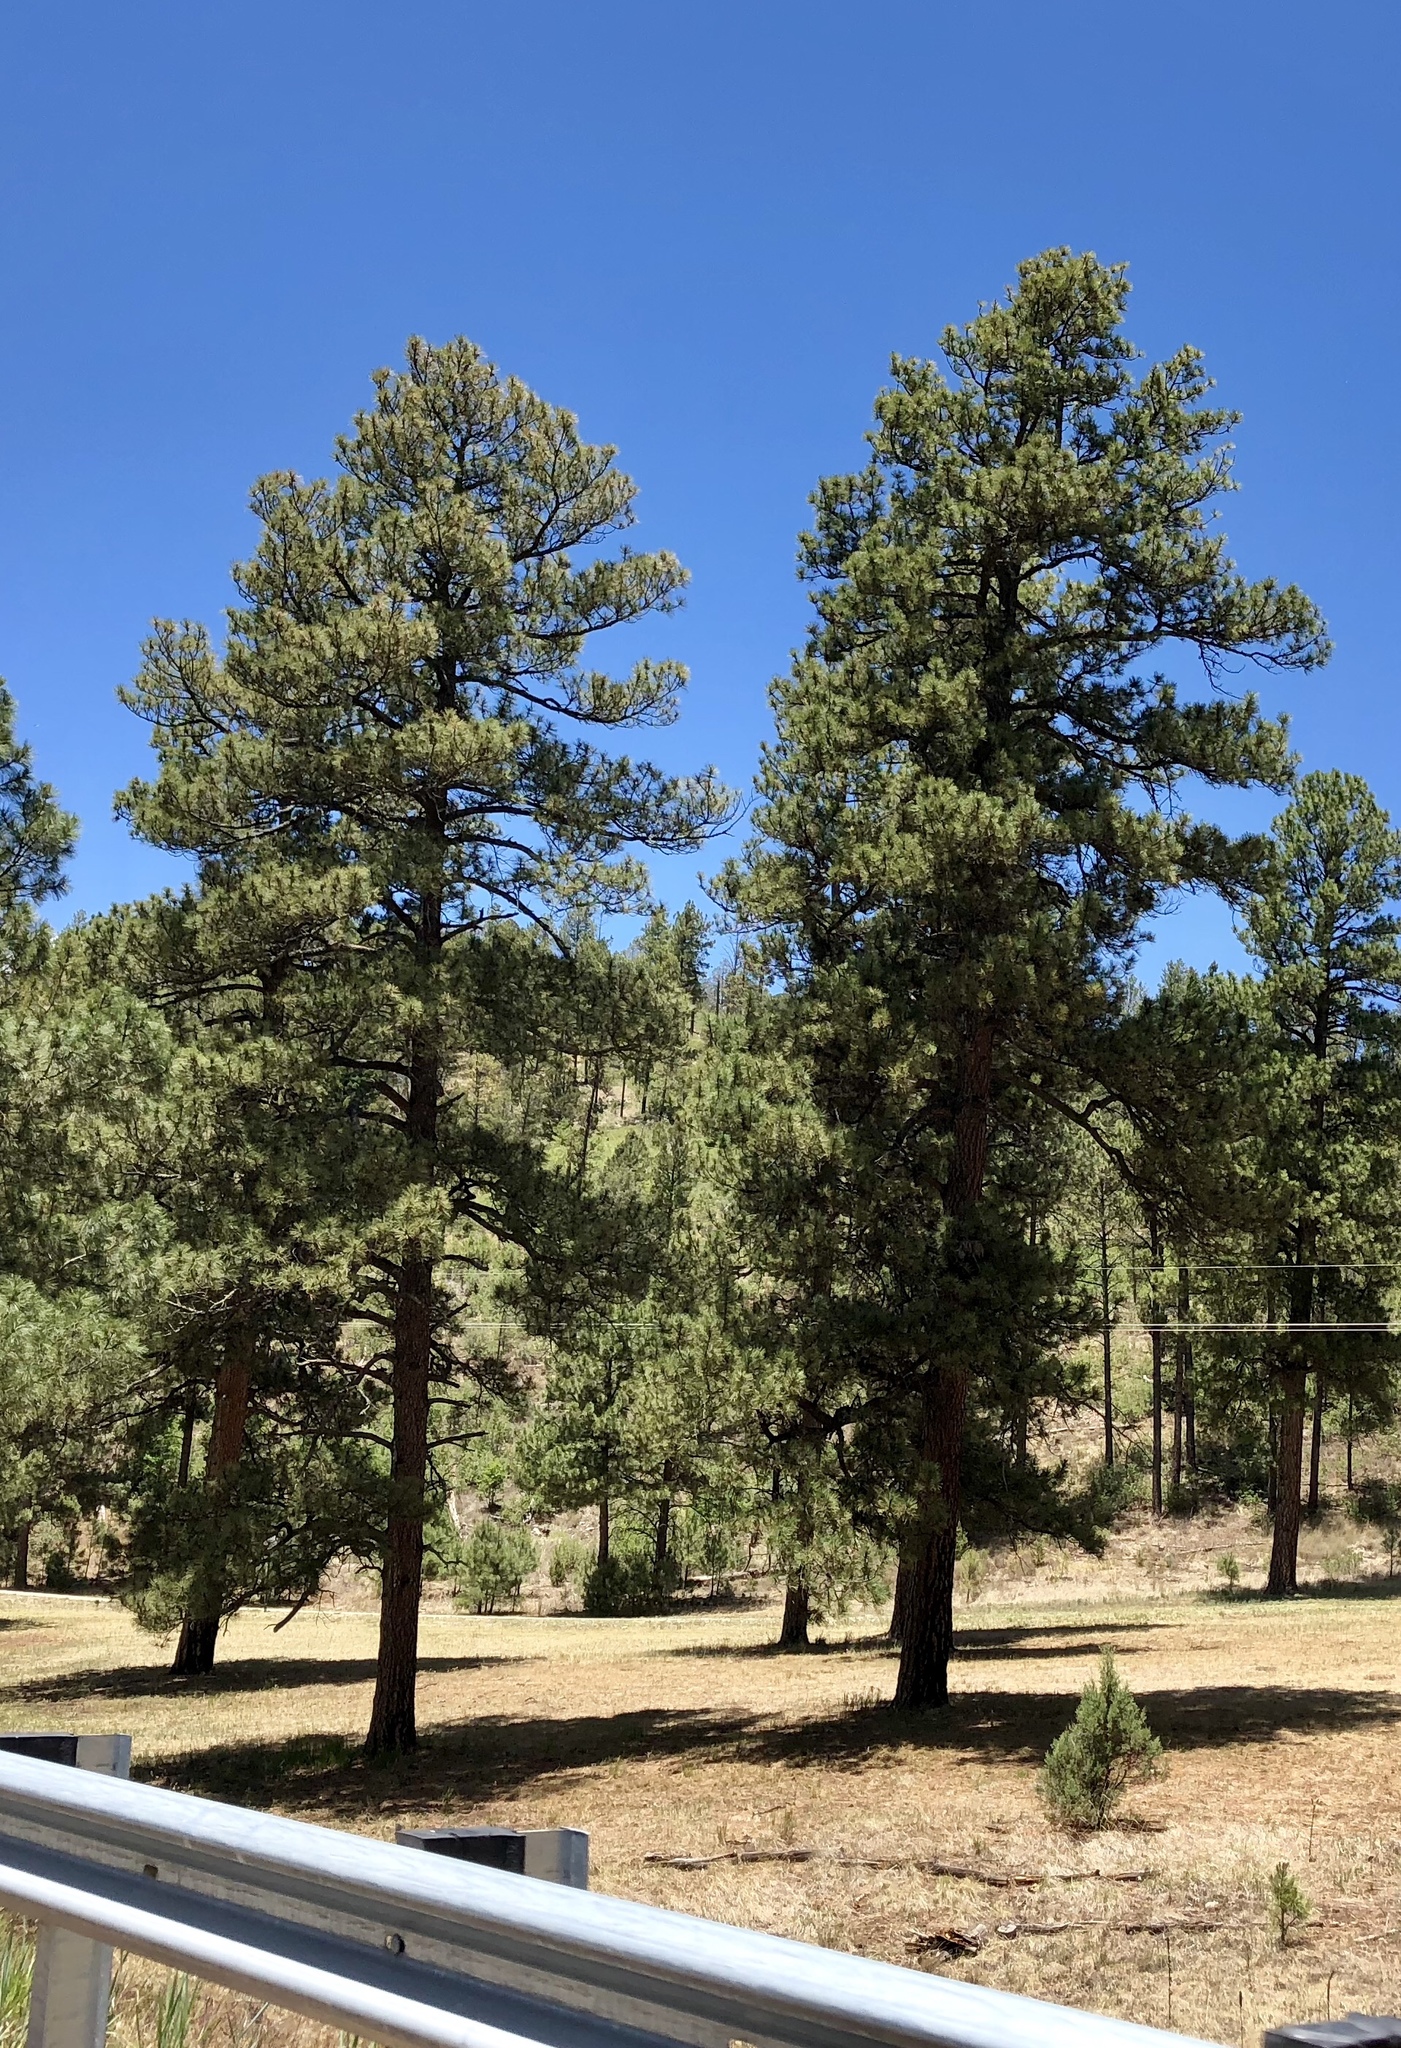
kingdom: Plantae
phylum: Tracheophyta
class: Pinopsida
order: Pinales
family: Pinaceae
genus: Pinus
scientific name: Pinus ponderosa
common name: Western yellow-pine
